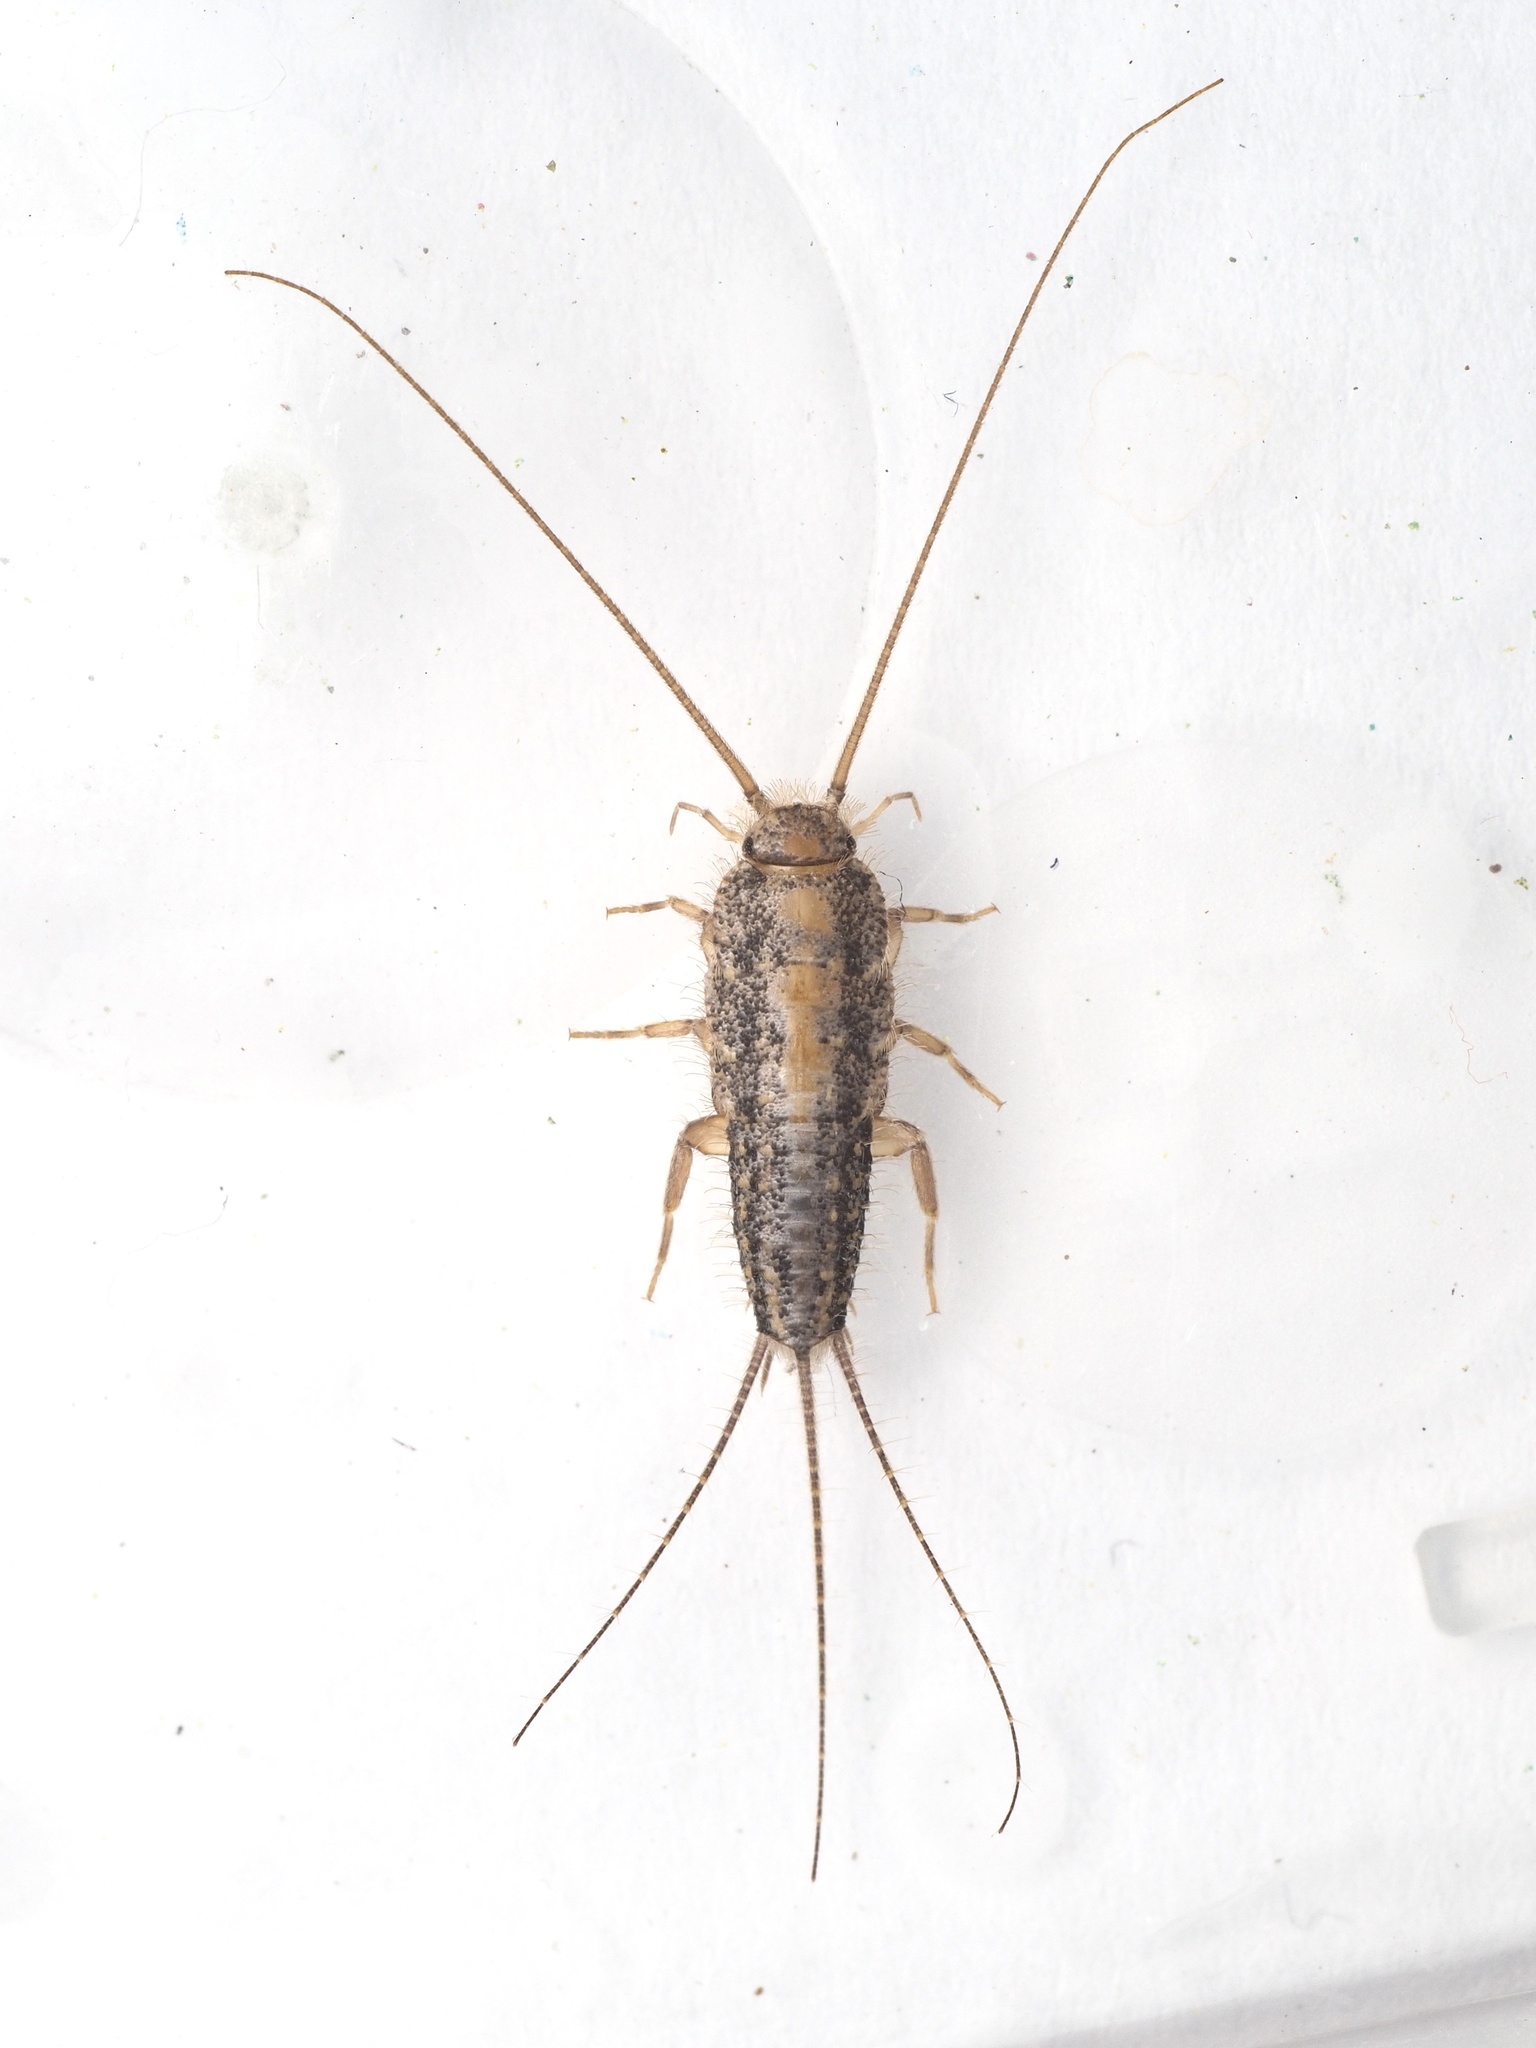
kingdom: Animalia
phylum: Arthropoda
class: Insecta
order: Zygentoma
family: Lepismatidae
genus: Ctenolepisma
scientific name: Ctenolepisma lineata
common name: Four-lined silverfish
